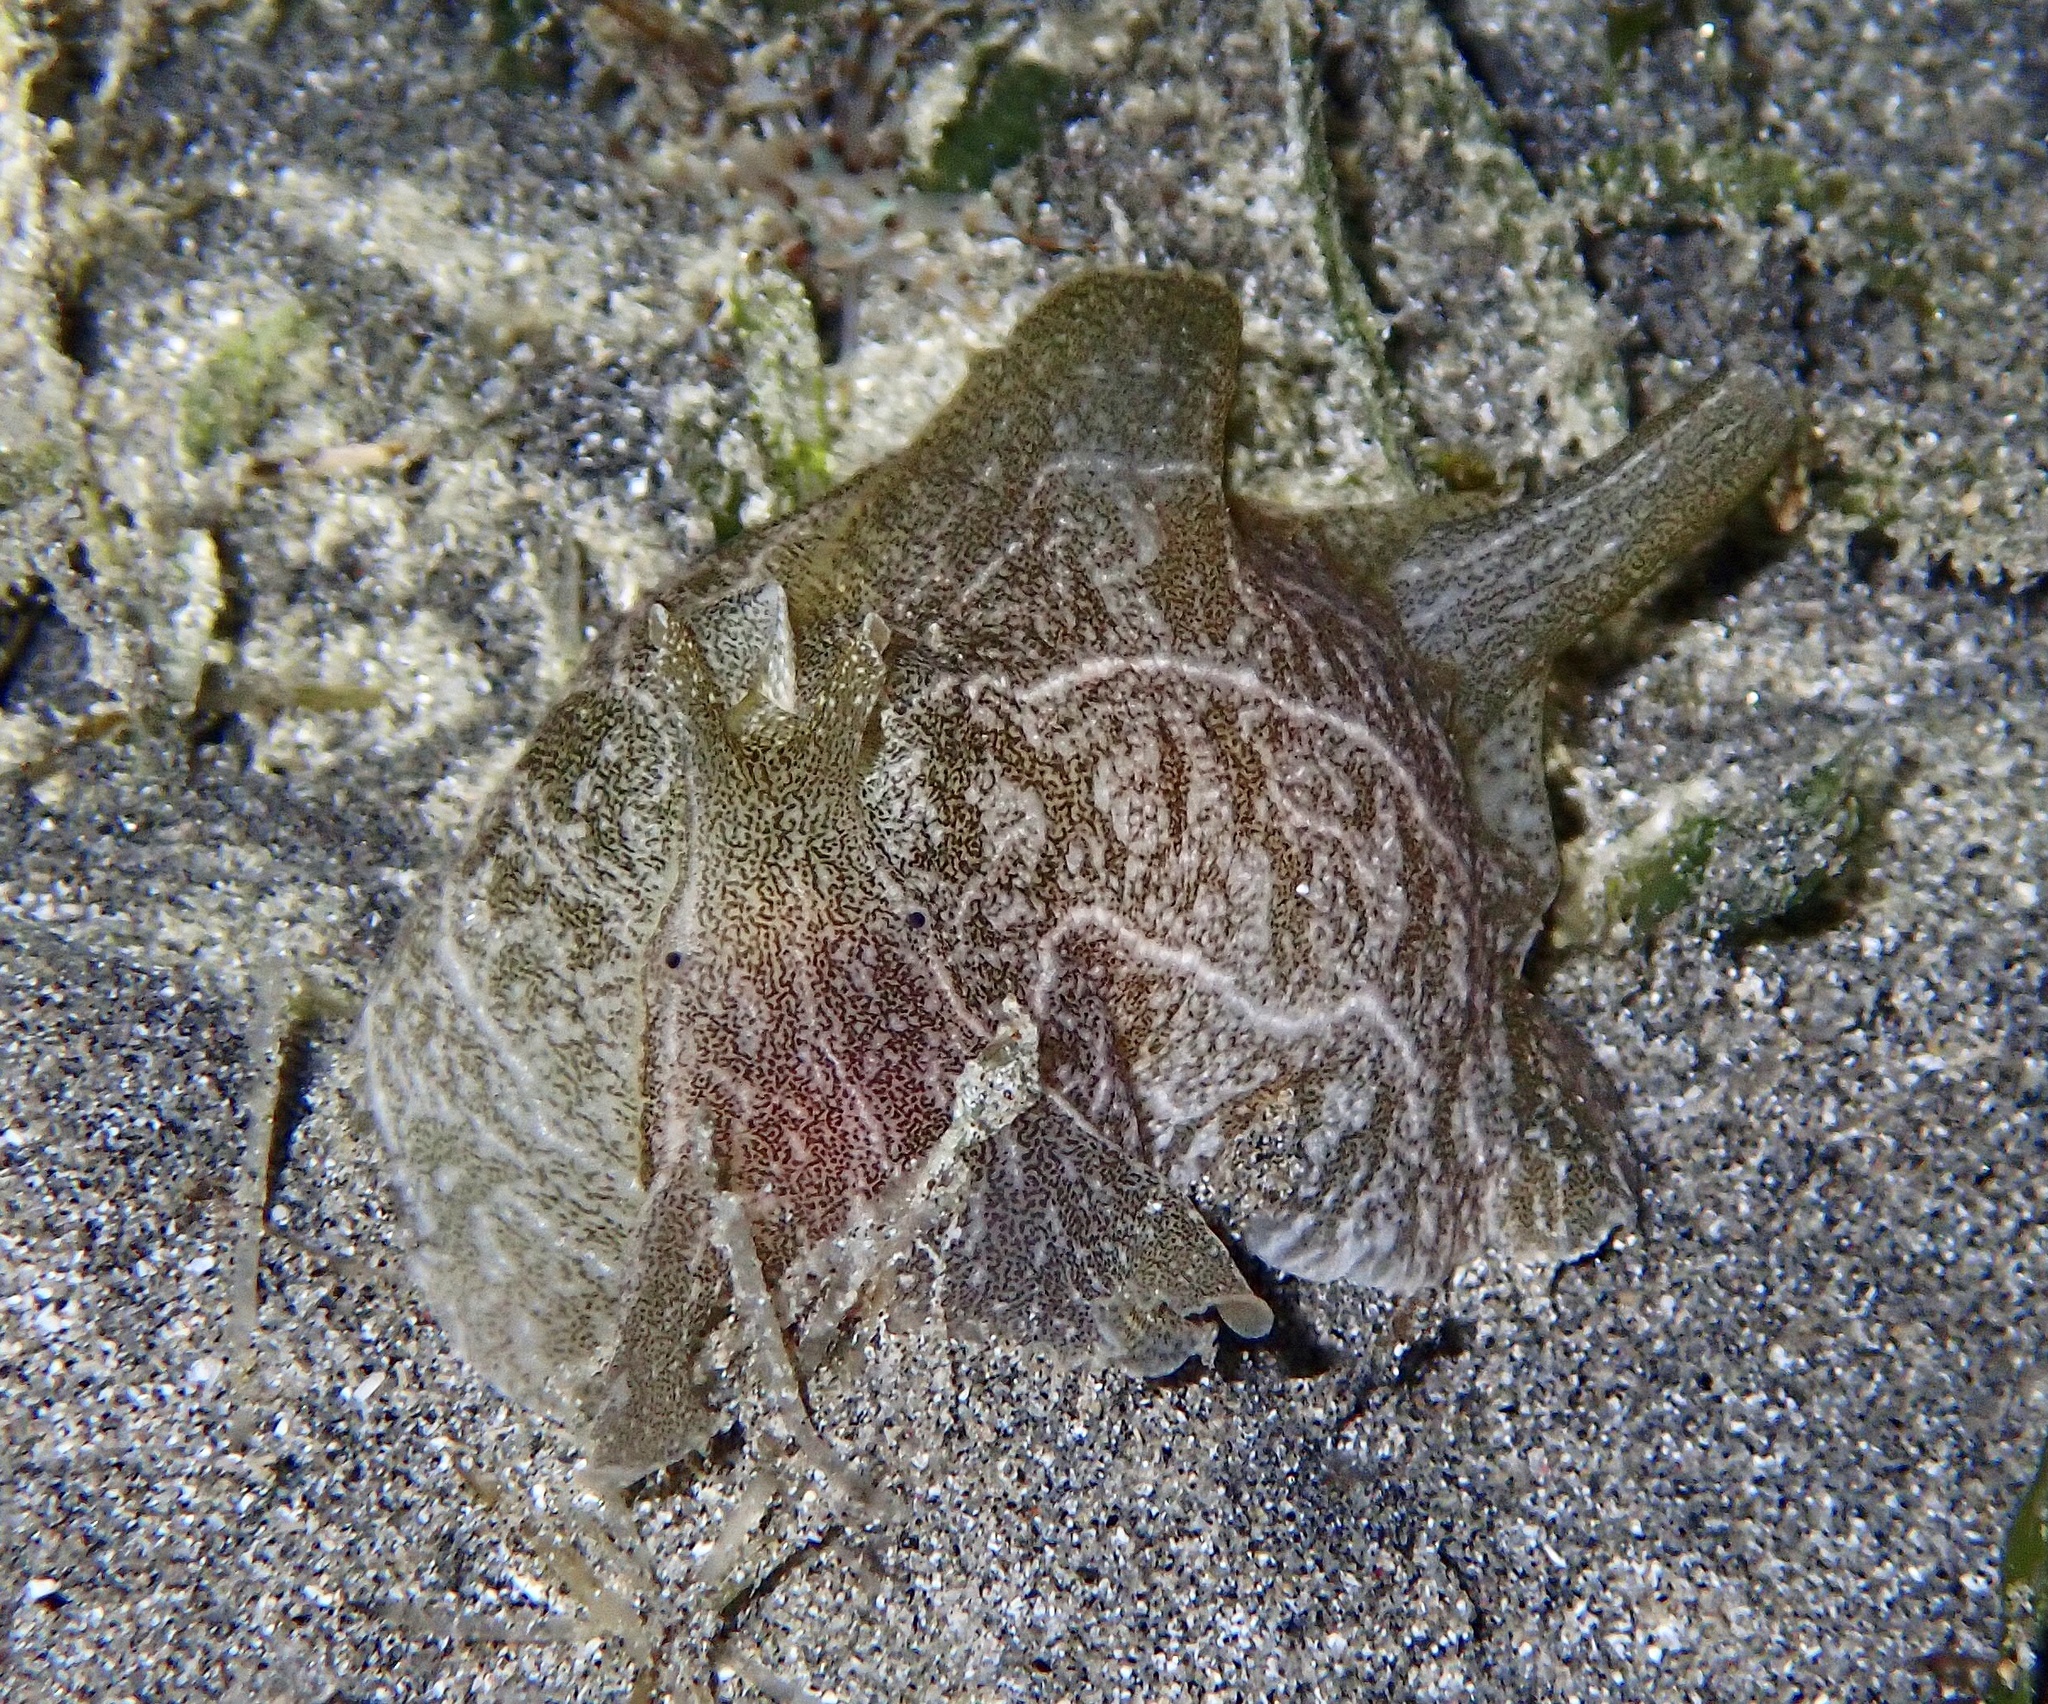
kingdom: Animalia
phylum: Mollusca
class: Gastropoda
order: Aplysiida
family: Aplysiidae
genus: Syphonota
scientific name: Syphonota geographica
